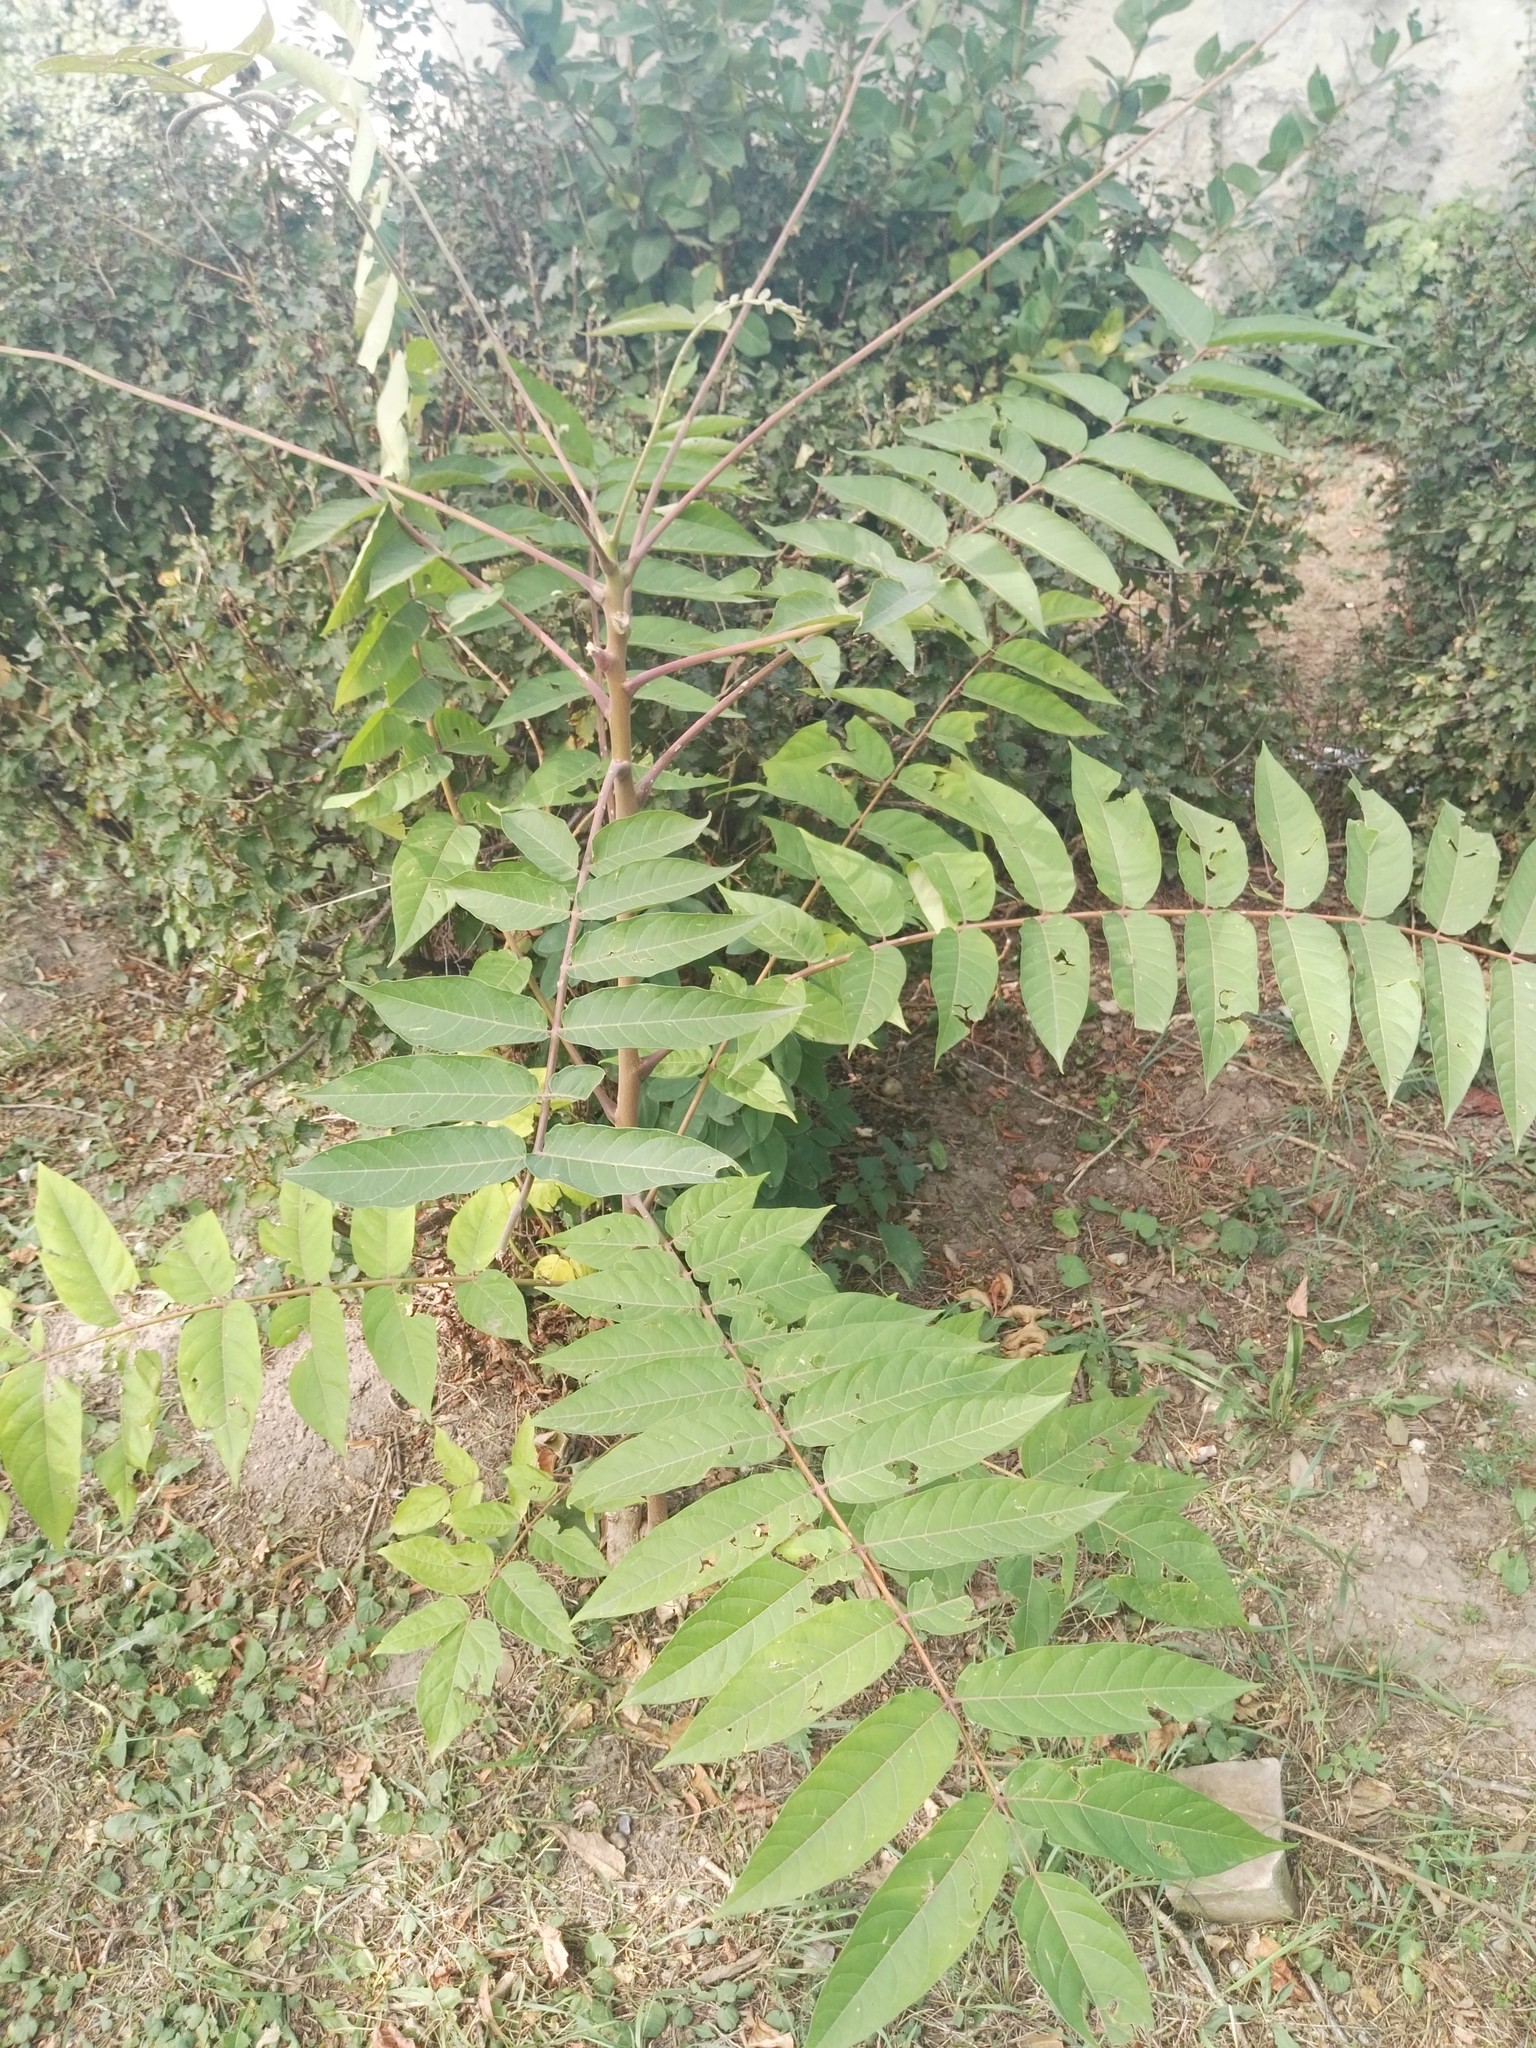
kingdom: Plantae
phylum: Tracheophyta
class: Magnoliopsida
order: Sapindales
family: Simaroubaceae
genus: Ailanthus
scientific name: Ailanthus altissima
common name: Tree-of-heaven
